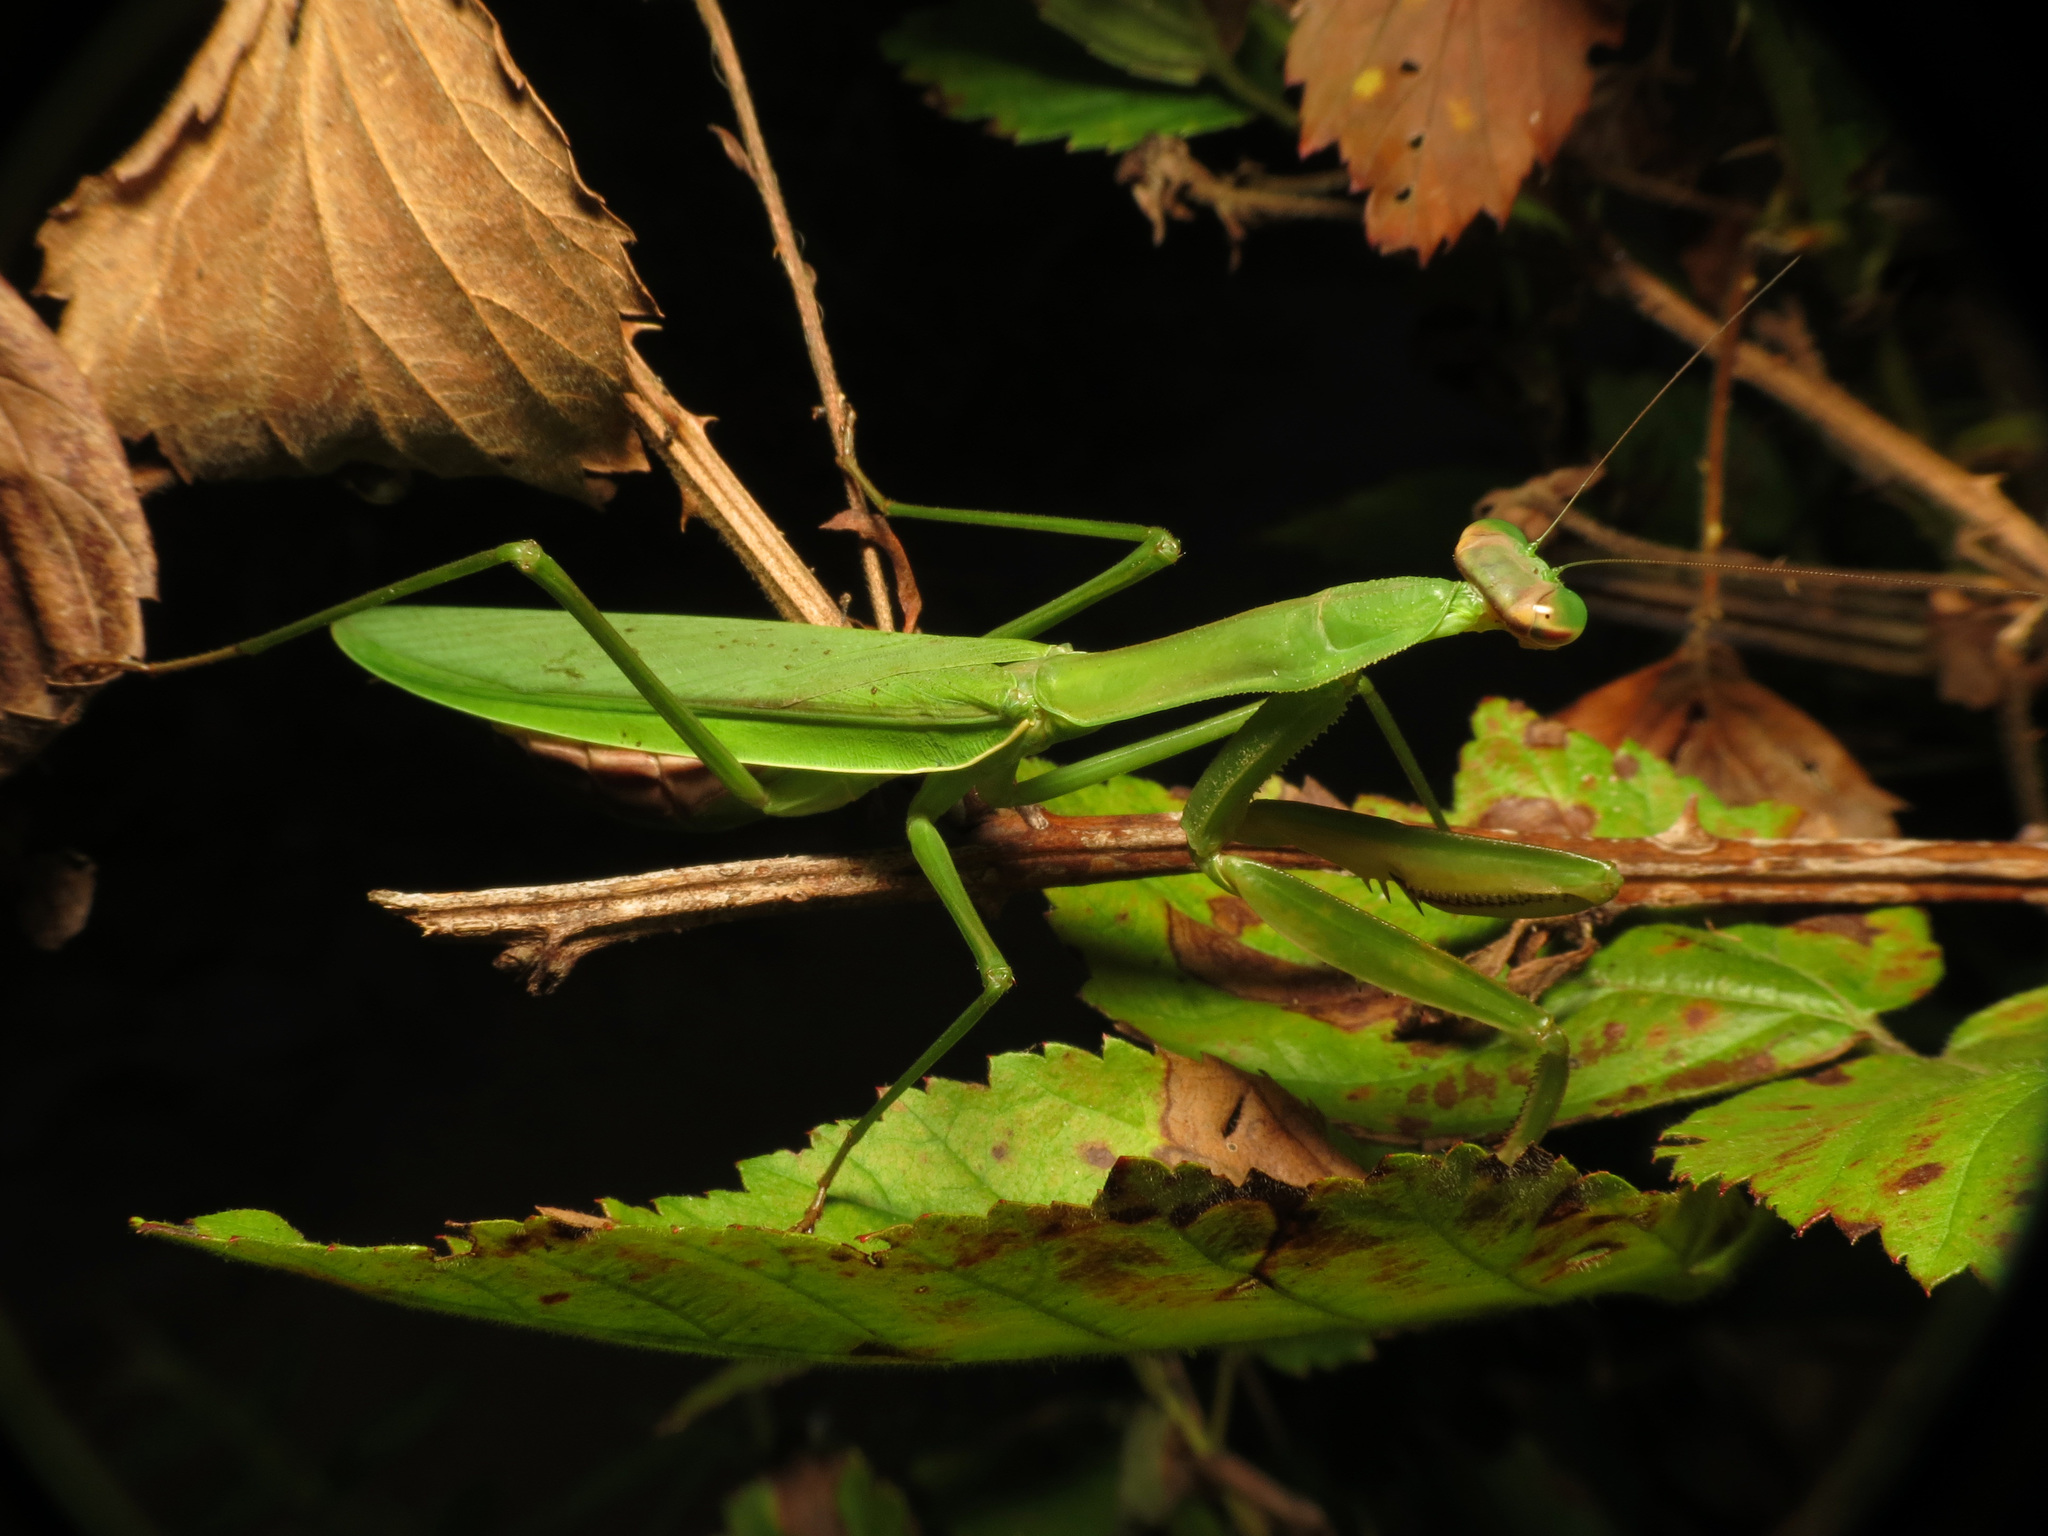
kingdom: Animalia
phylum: Arthropoda
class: Insecta
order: Mantodea
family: Mantidae
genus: Tenodera
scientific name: Tenodera sinensis
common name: Chinese mantis
